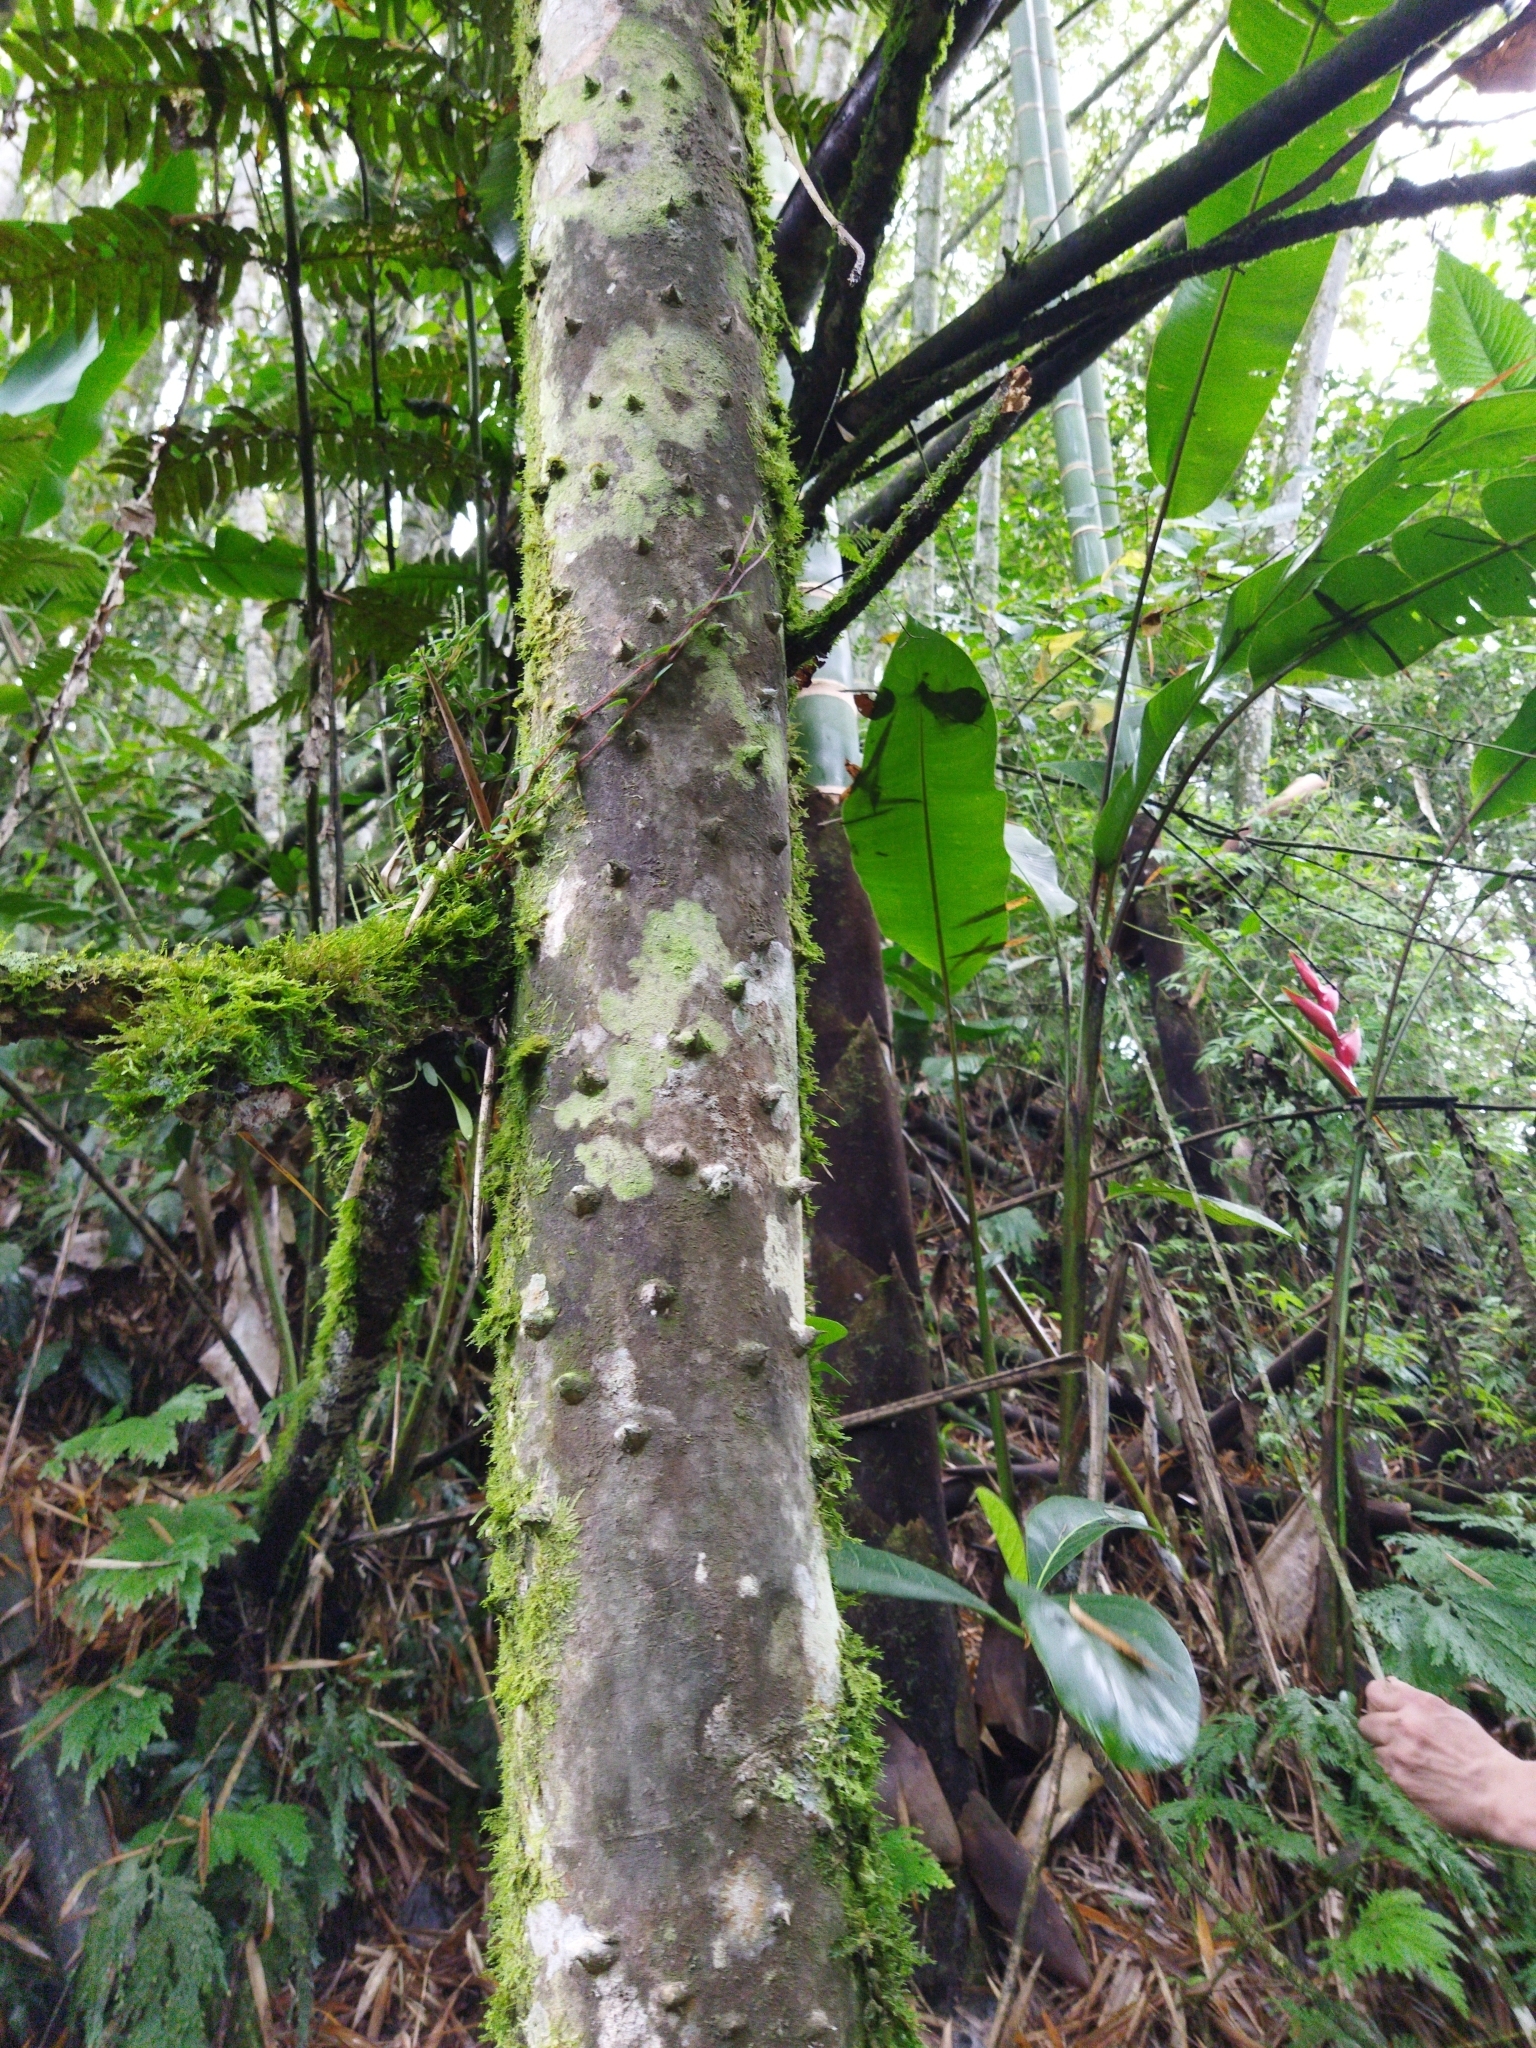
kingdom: Plantae
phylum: Tracheophyta
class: Magnoliopsida
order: Sapindales
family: Rutaceae
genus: Zanthoxylum
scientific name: Zanthoxylum rhoifolium
